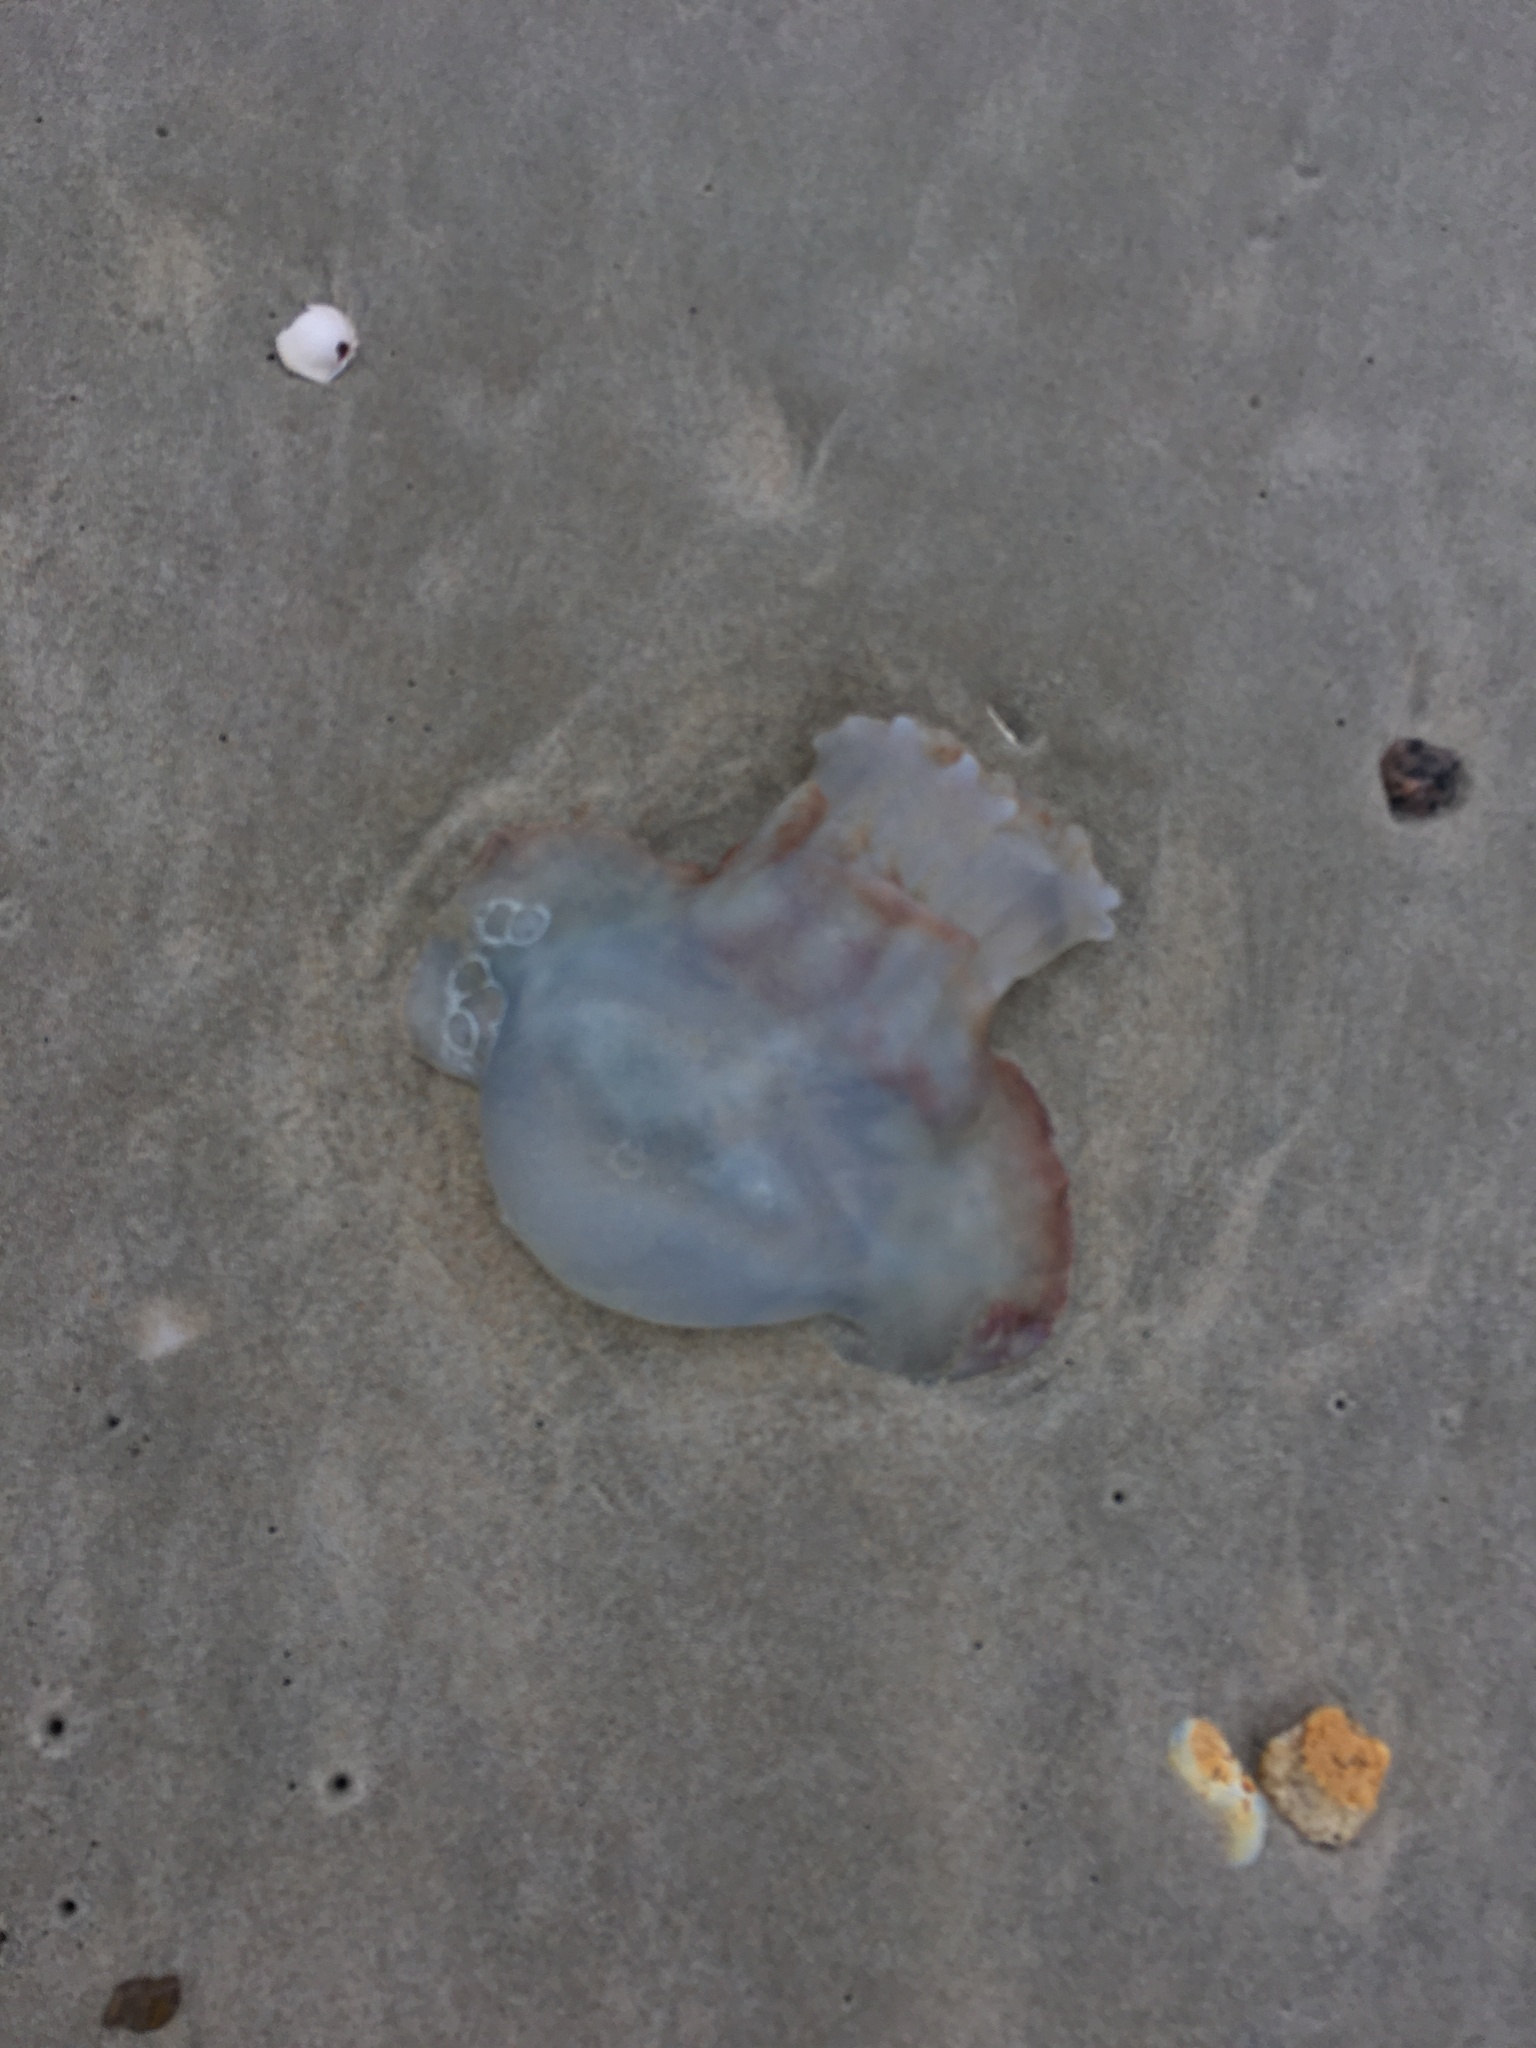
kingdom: Animalia
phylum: Cnidaria
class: Scyphozoa
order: Rhizostomeae
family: Stomolophidae
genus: Stomolophus
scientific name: Stomolophus meleagris
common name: Cabbagehead
